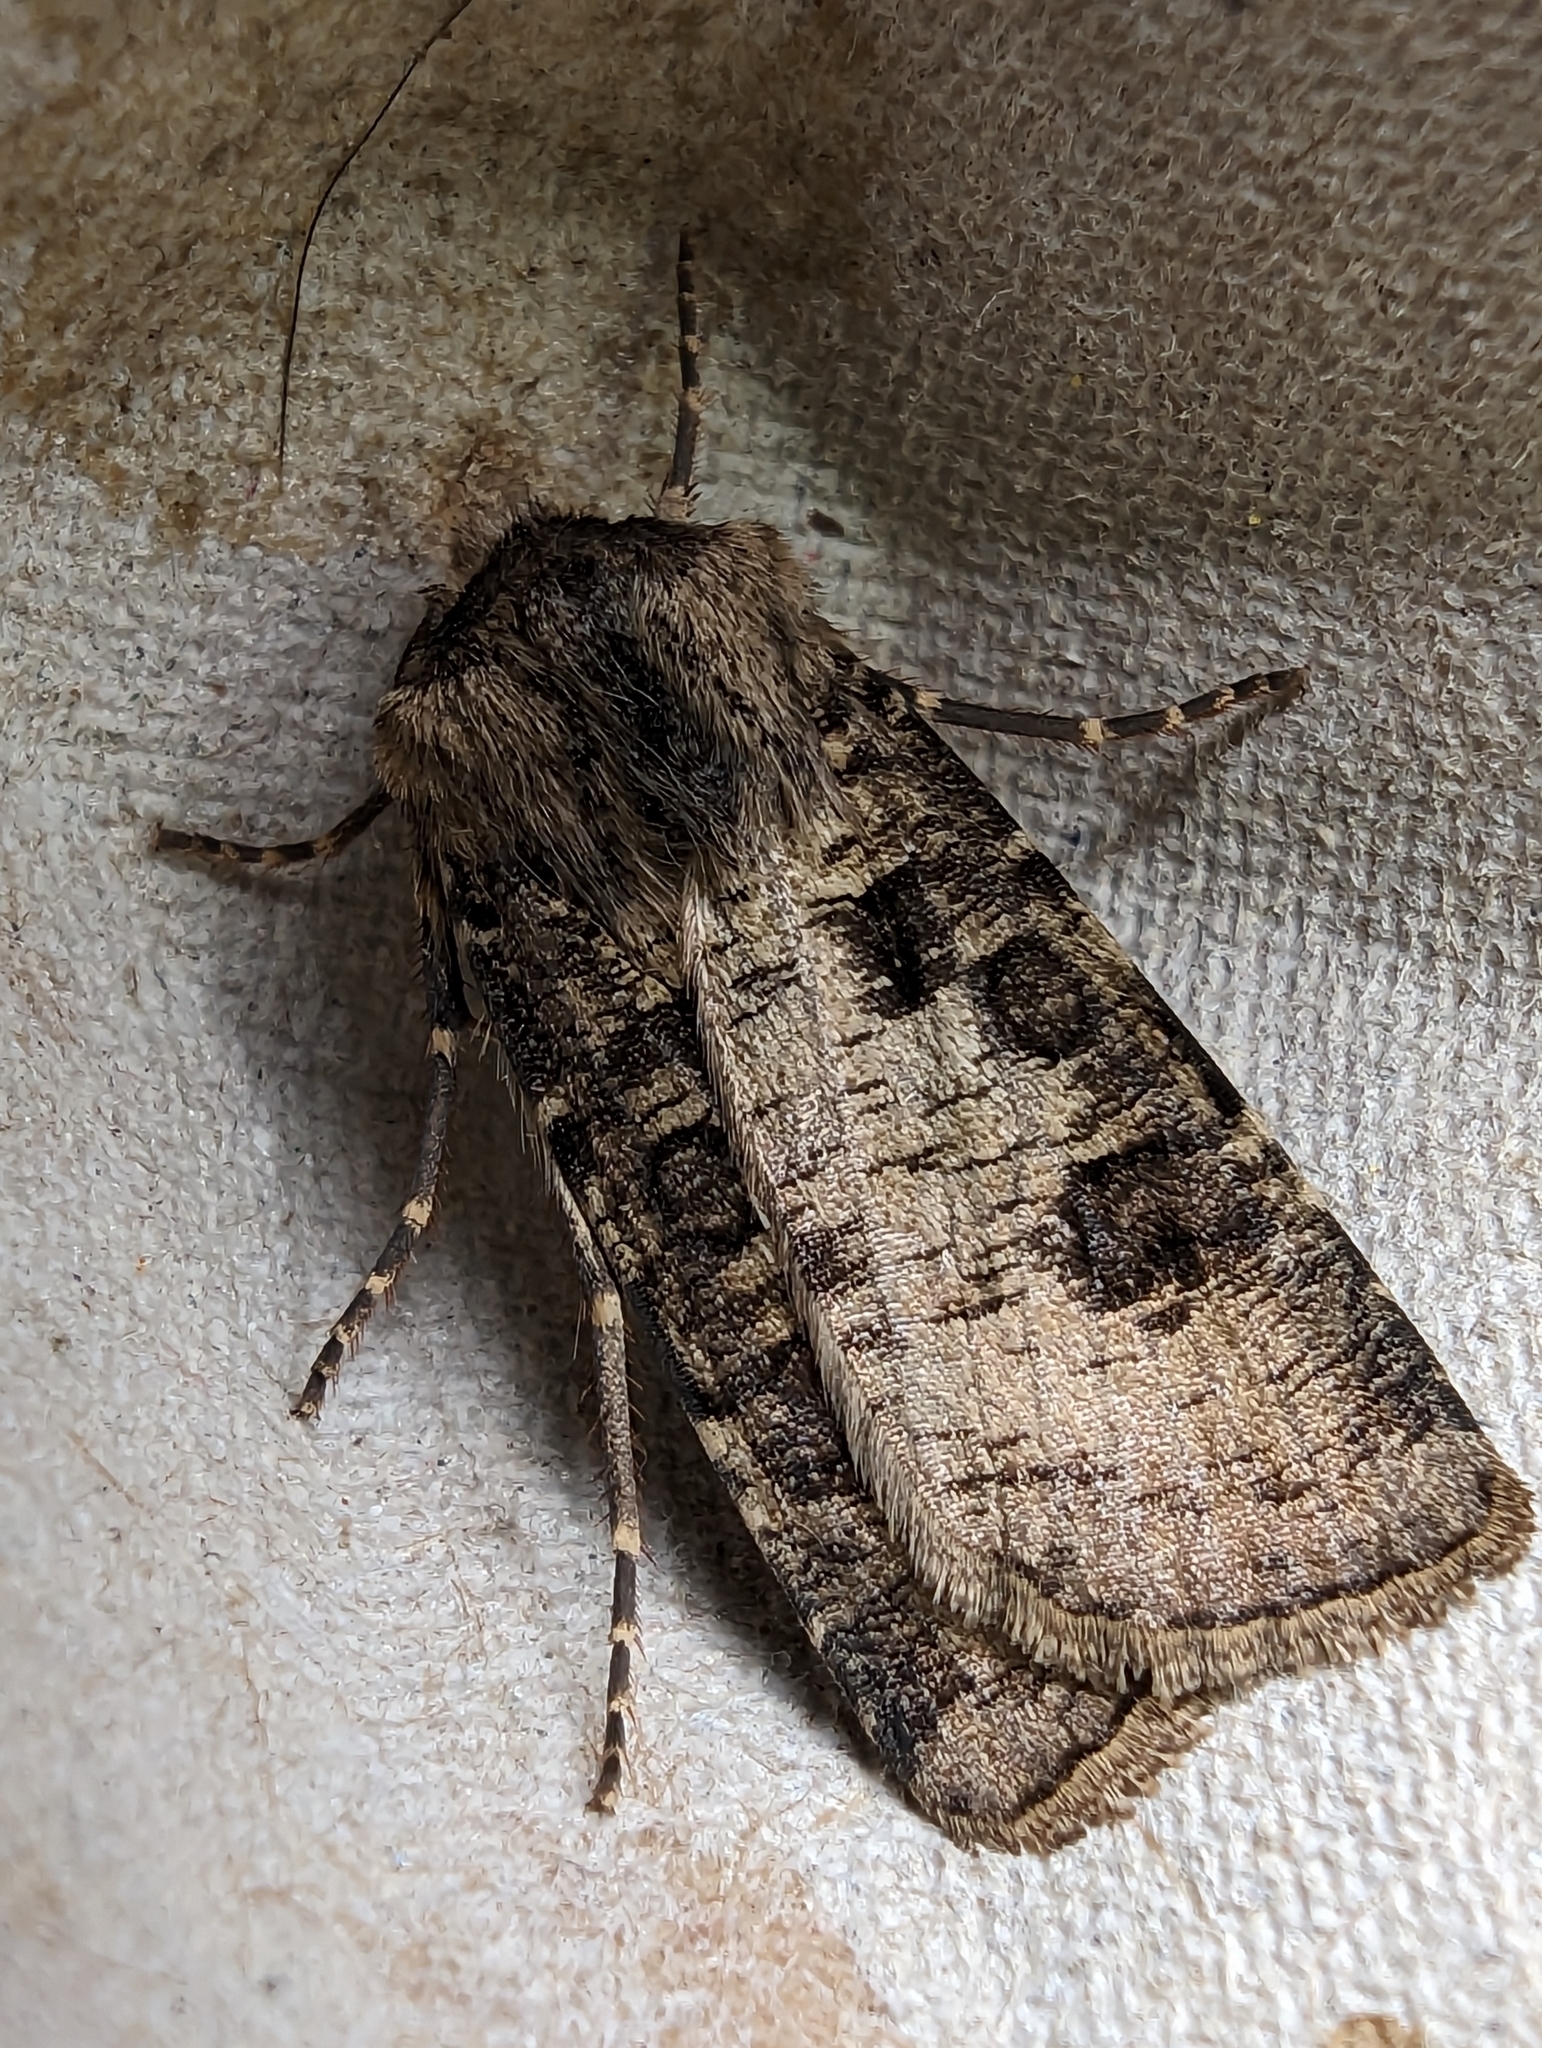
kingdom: Animalia
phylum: Arthropoda
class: Insecta
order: Lepidoptera
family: Noctuidae
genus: Agrotis
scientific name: Agrotis clavis
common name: Heart and club
